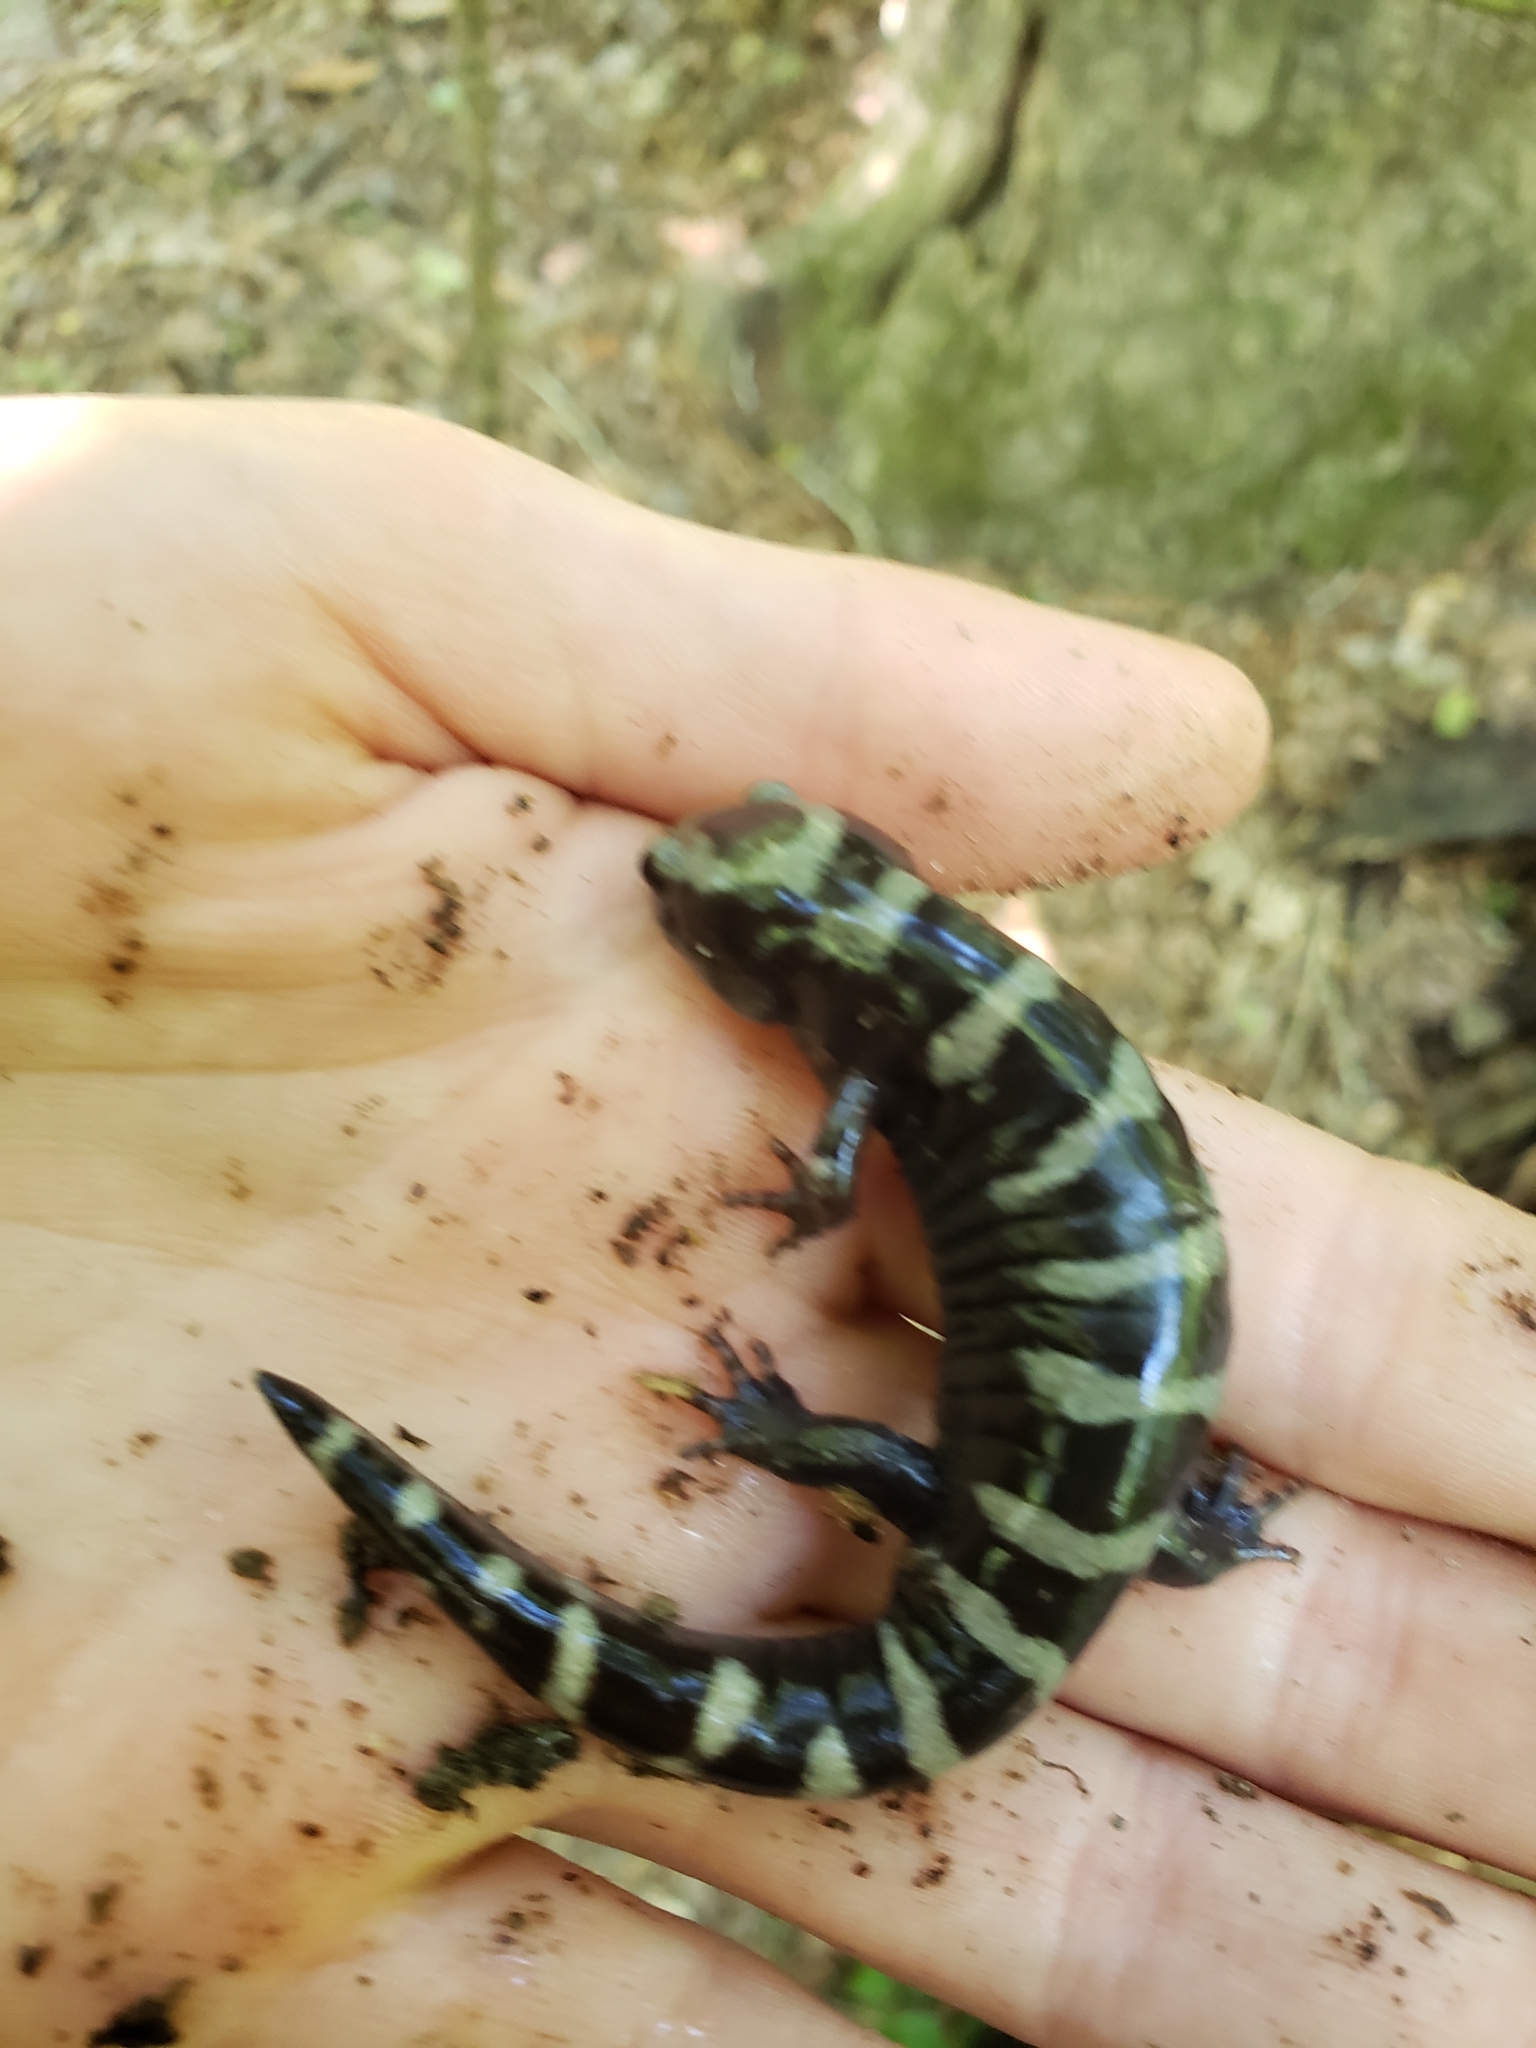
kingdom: Animalia
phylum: Chordata
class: Amphibia
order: Caudata
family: Ambystomatidae
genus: Ambystoma
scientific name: Ambystoma opacum
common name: Marbled salamander
